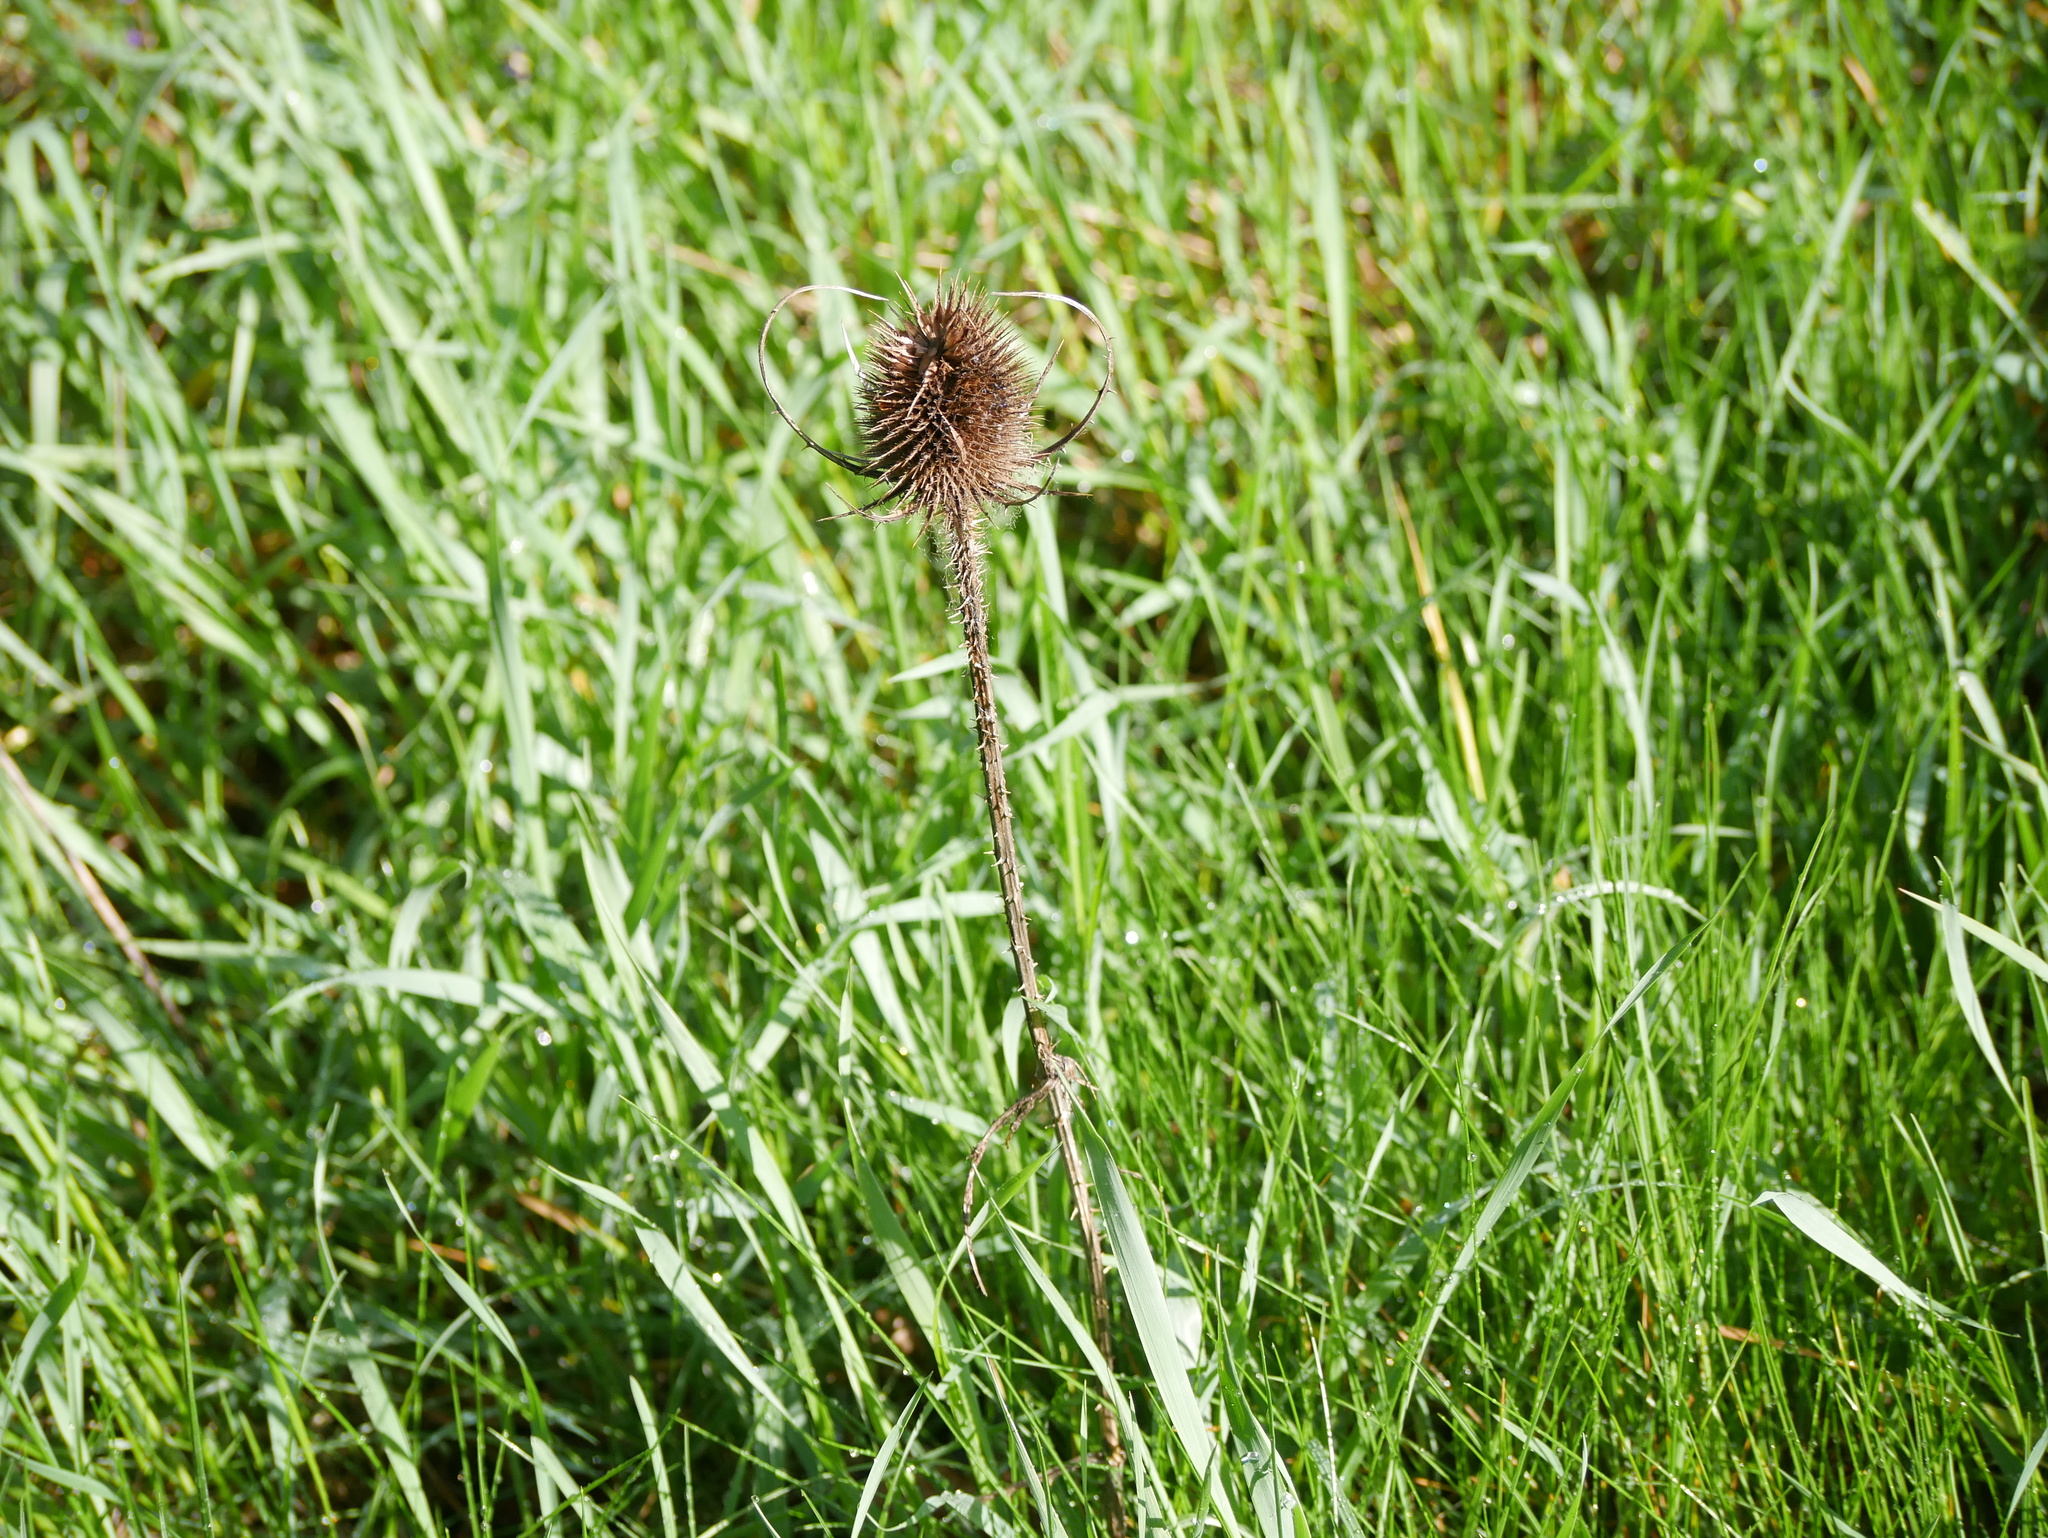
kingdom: Plantae
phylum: Tracheophyta
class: Magnoliopsida
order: Dipsacales
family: Caprifoliaceae
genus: Dipsacus
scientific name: Dipsacus fullonum
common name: Teasel
